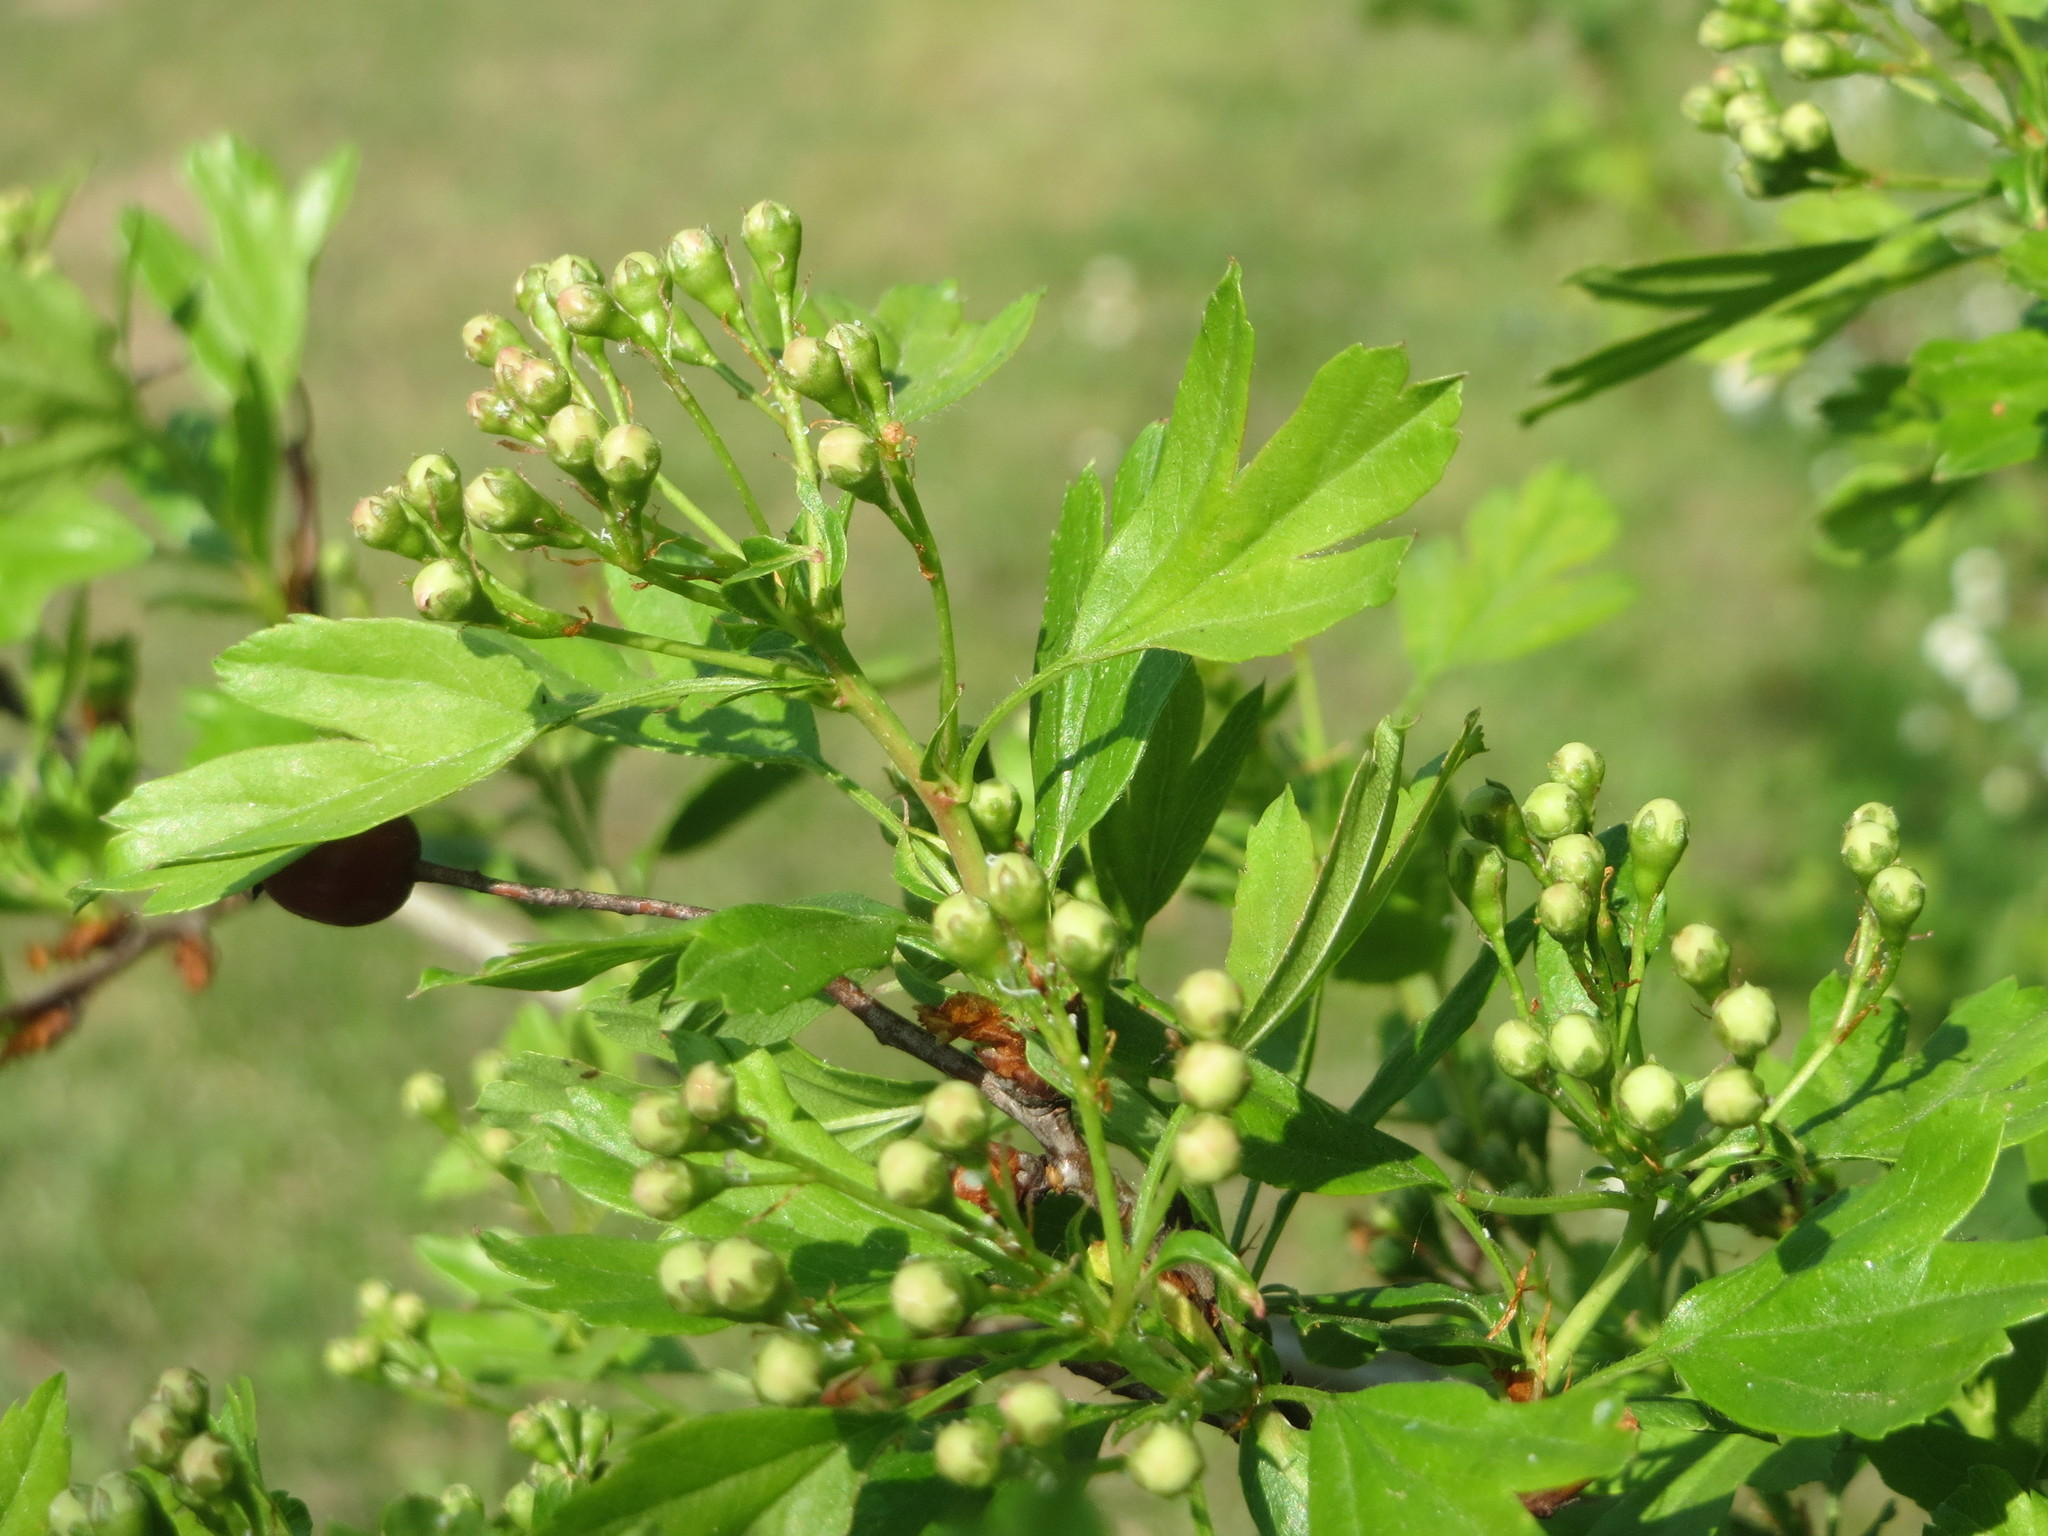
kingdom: Plantae
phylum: Tracheophyta
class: Magnoliopsida
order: Rosales
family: Rosaceae
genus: Crataegus
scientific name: Crataegus monogyna
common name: Hawthorn
